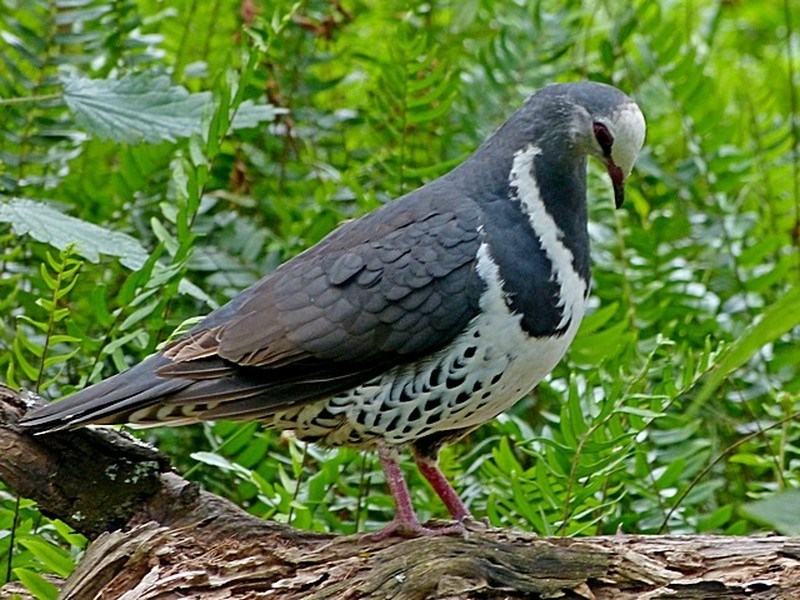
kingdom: Animalia
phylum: Chordata
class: Aves
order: Columbiformes
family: Columbidae
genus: Leucosarcia
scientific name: Leucosarcia melanoleuca
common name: Wonga pigeon
